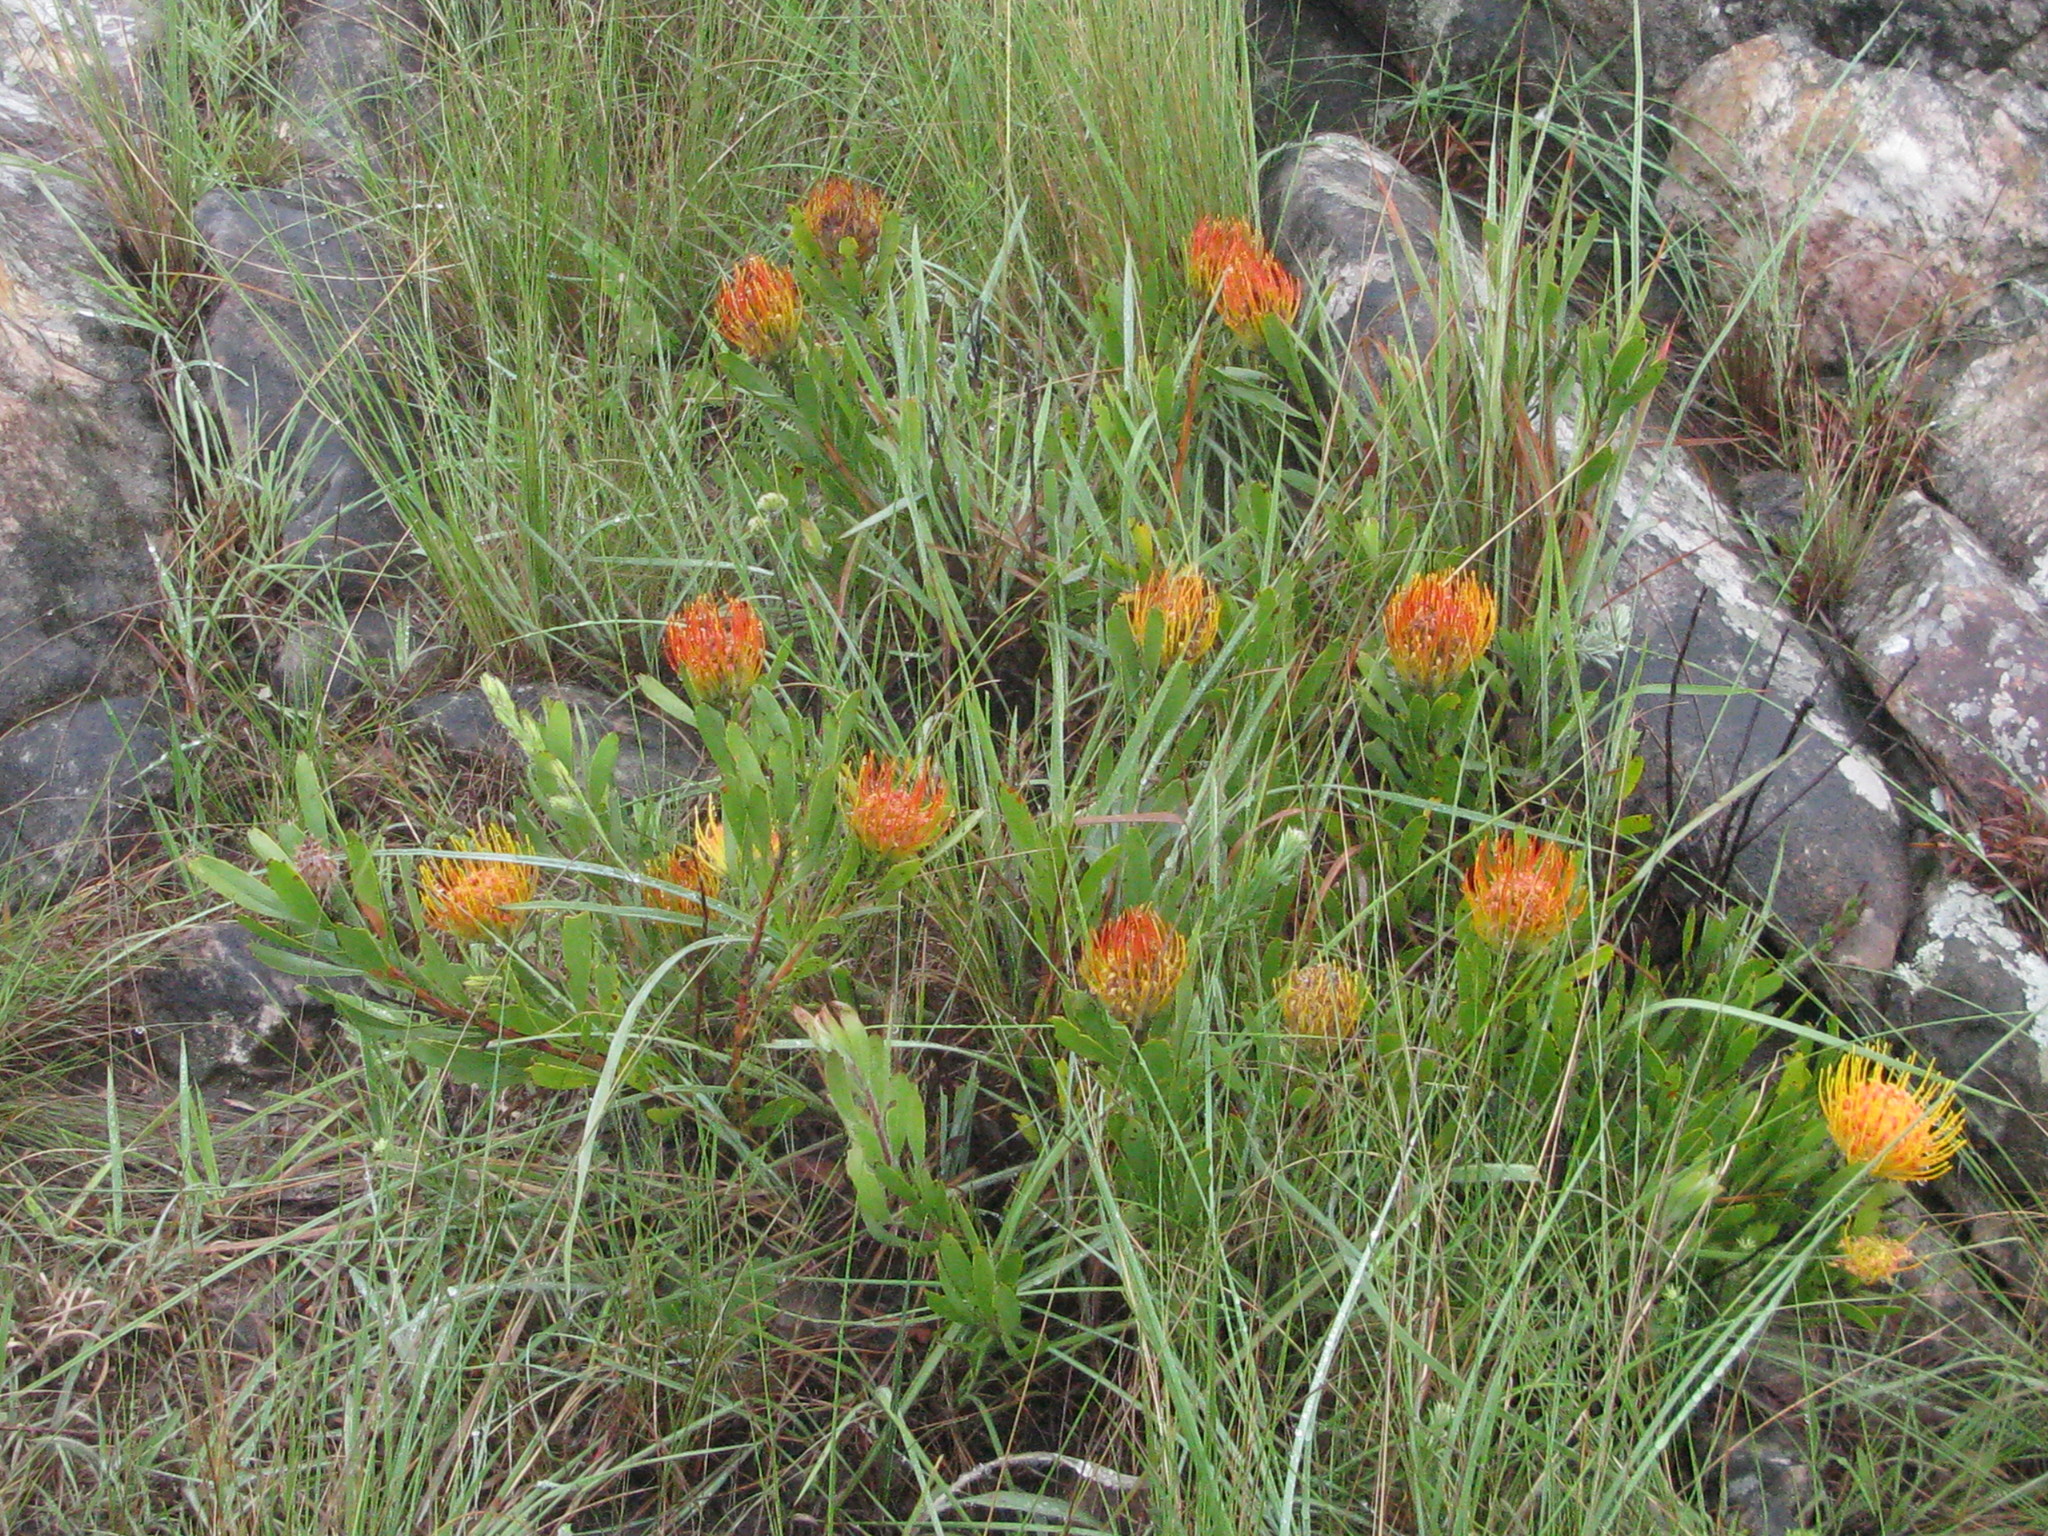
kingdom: Plantae
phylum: Tracheophyta
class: Magnoliopsida
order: Proteales
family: Proteaceae
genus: Leucospermum
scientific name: Leucospermum gerrardii
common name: Soapstone pincushion
